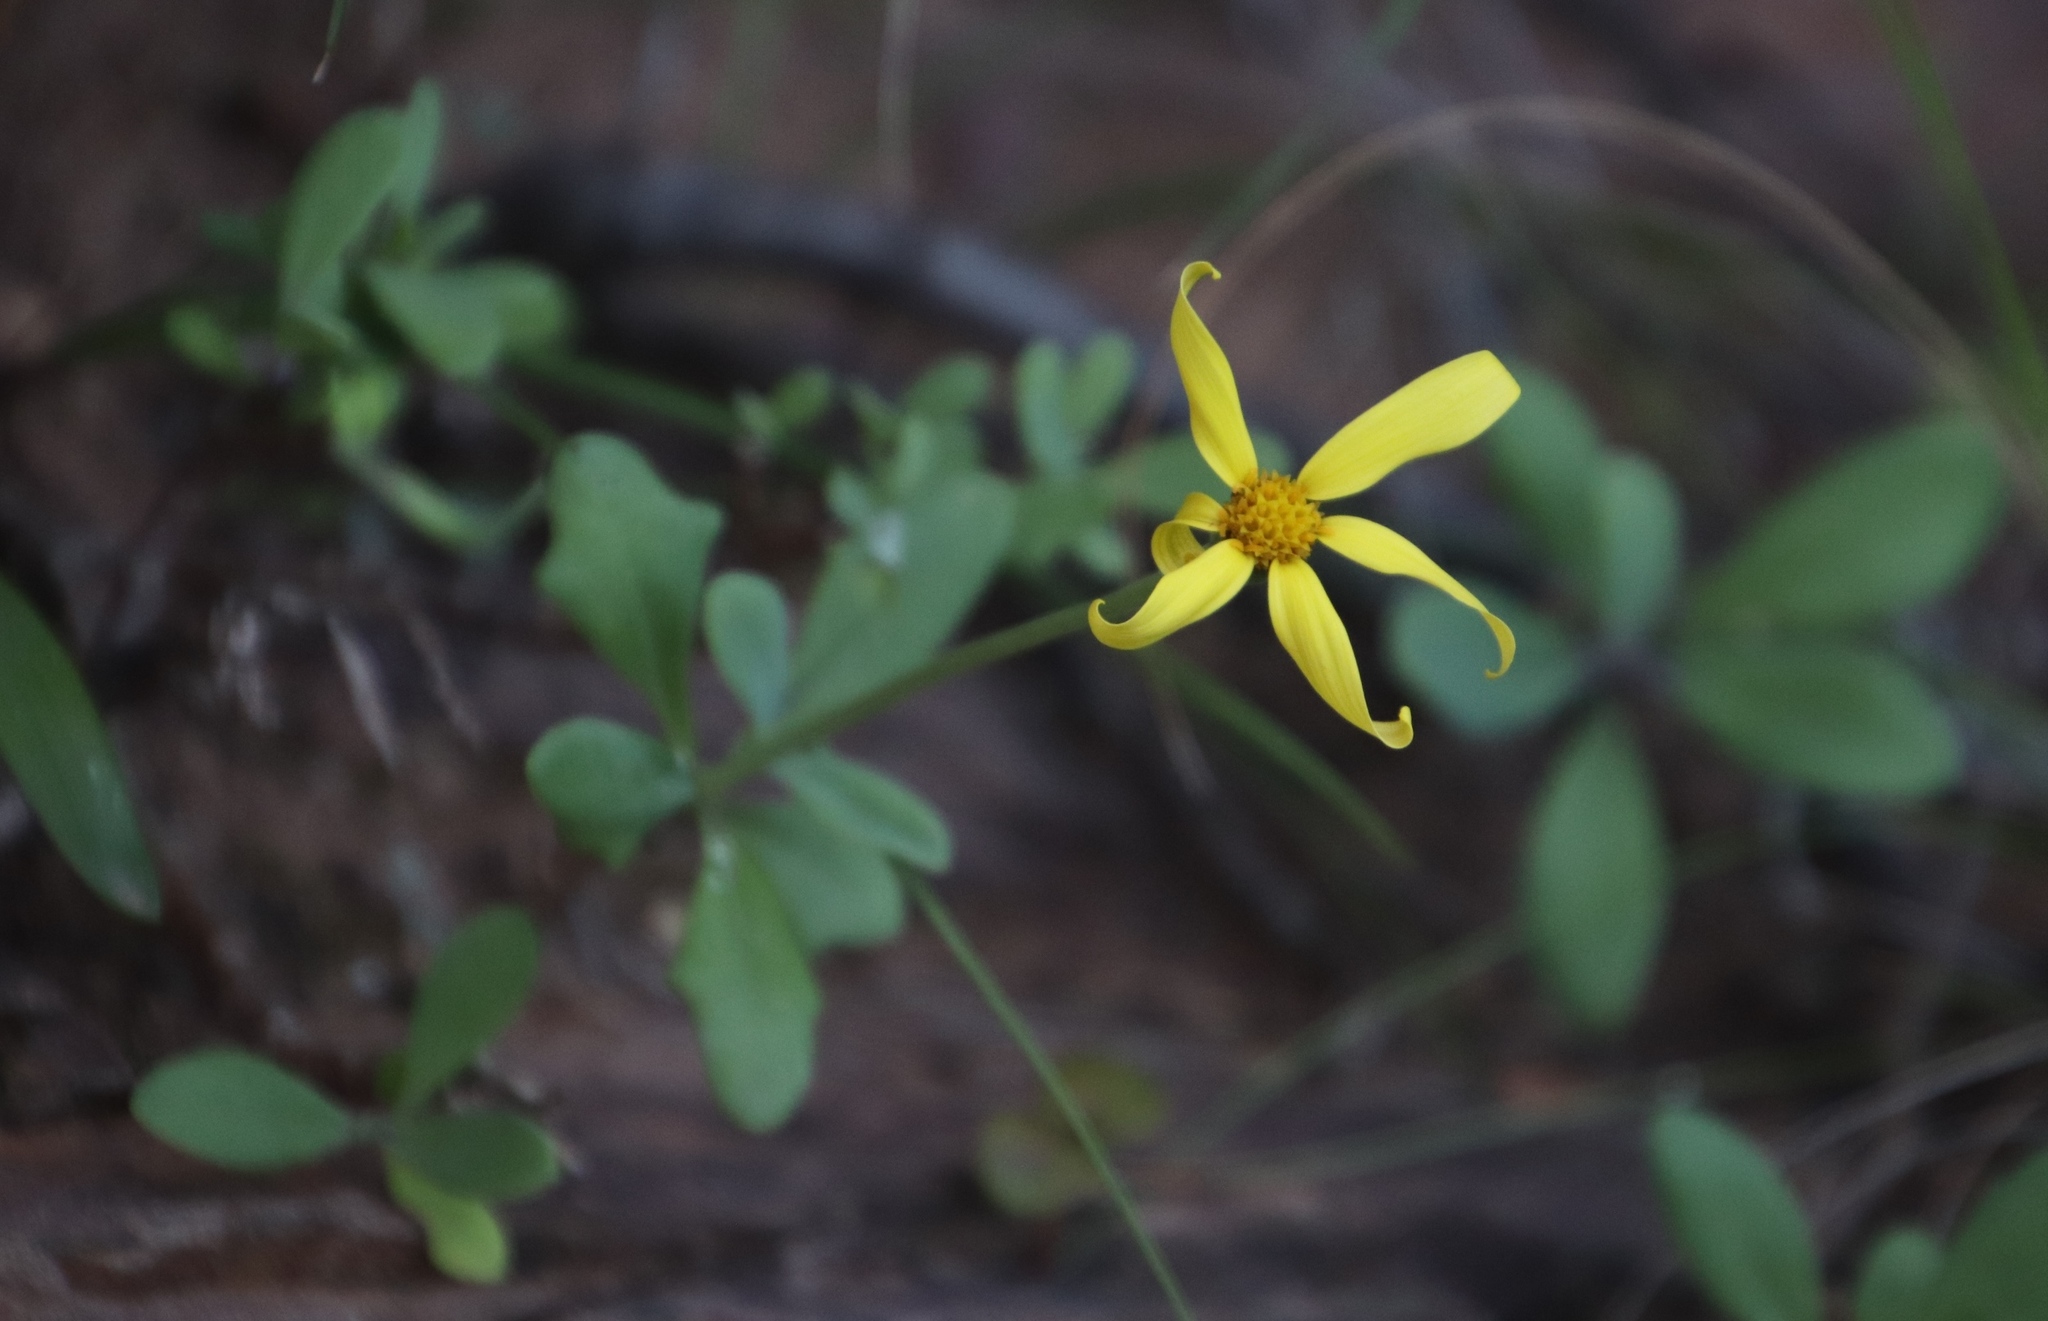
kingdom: Plantae
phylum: Tracheophyta
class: Magnoliopsida
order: Asterales
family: Asteraceae
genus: Othonna
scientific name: Othonna arborescens
